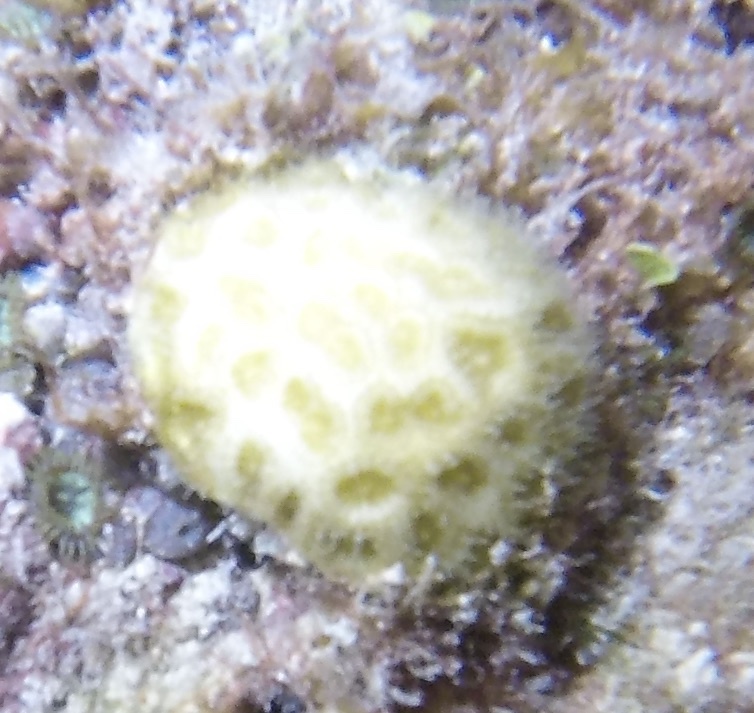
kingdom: Animalia
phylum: Cnidaria
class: Anthozoa
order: Scleractinia
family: Faviidae
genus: Favia
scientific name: Favia fragum
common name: Golfball coral
